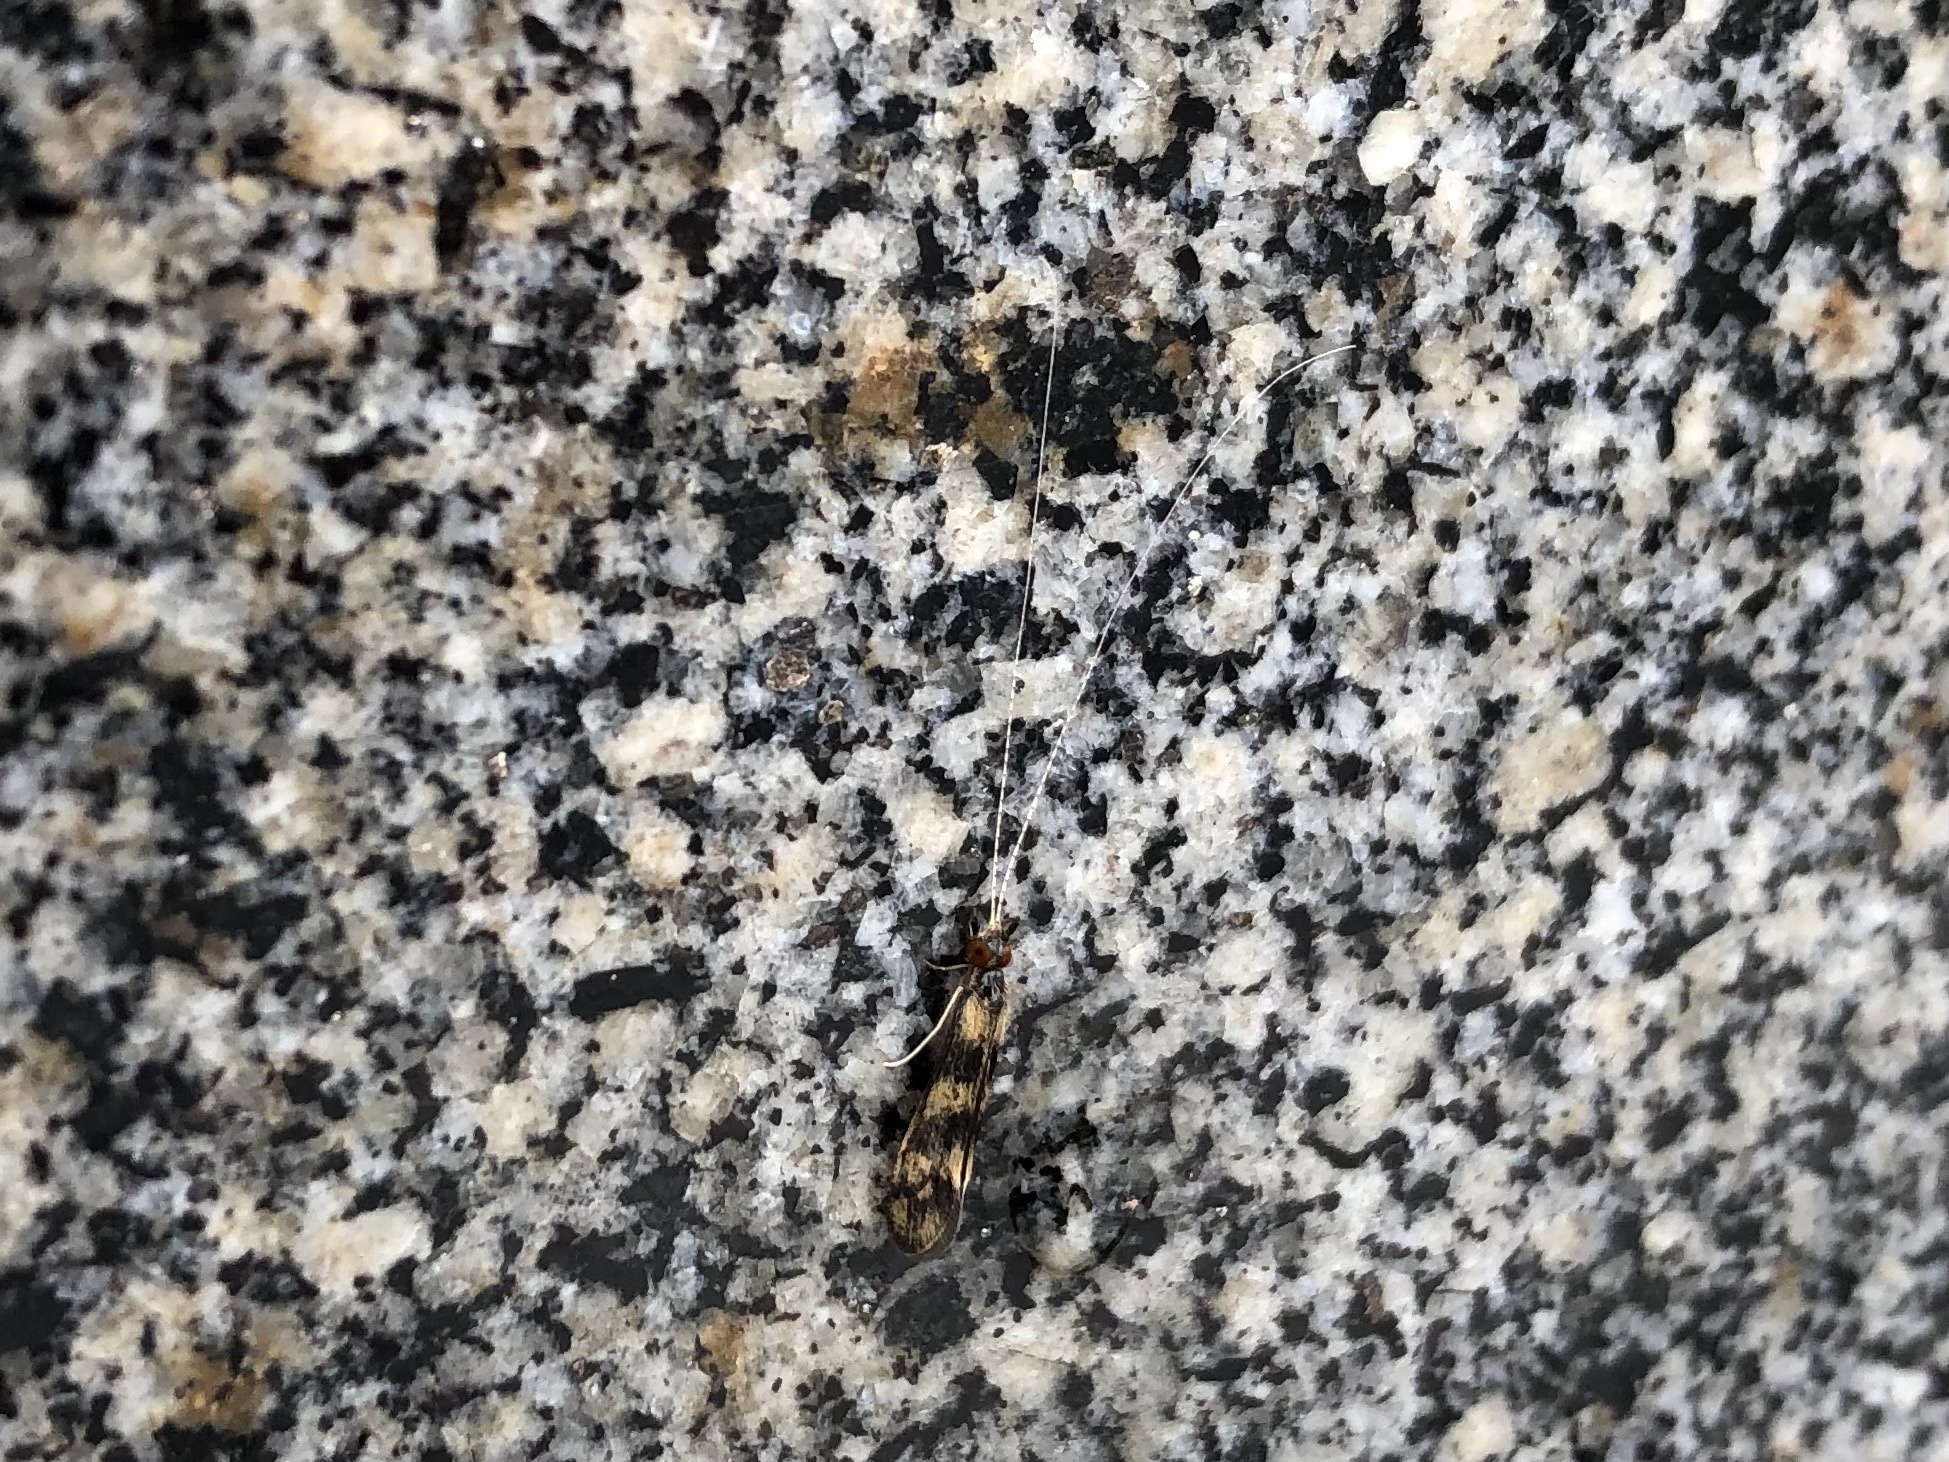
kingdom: Animalia
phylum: Arthropoda
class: Insecta
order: Trichoptera
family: Leptoceridae
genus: Mystacides
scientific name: Mystacides longicornis
